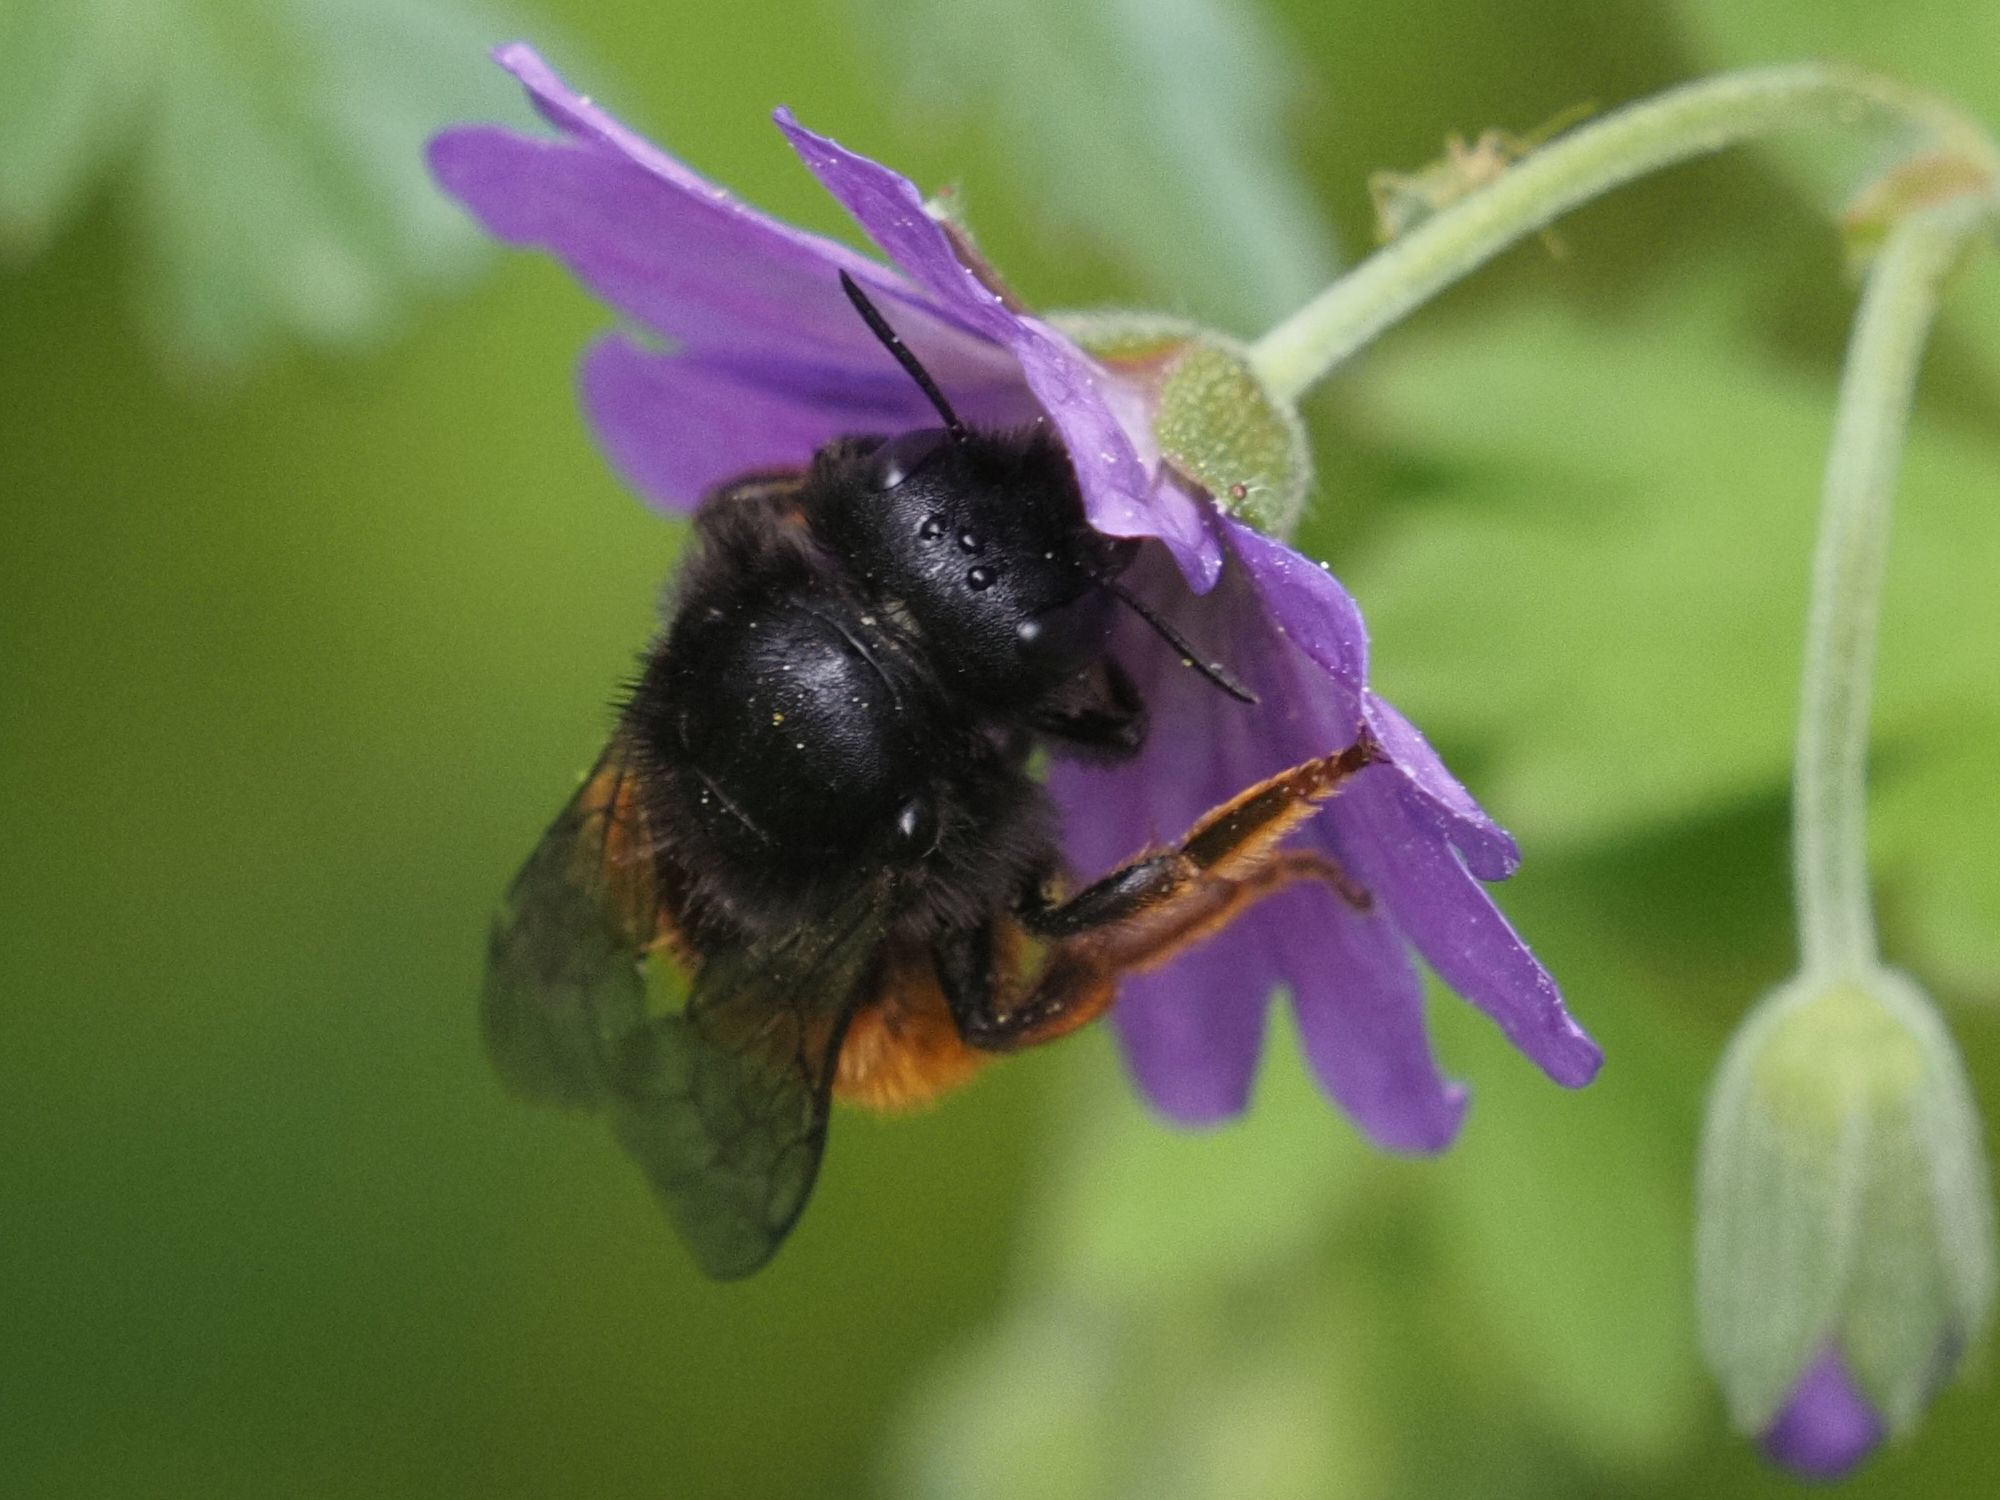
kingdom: Animalia
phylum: Arthropoda
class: Insecta
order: Hymenoptera
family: Megachilidae
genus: Osmia
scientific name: Osmia bicolor
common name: Red-tailed mason bee
